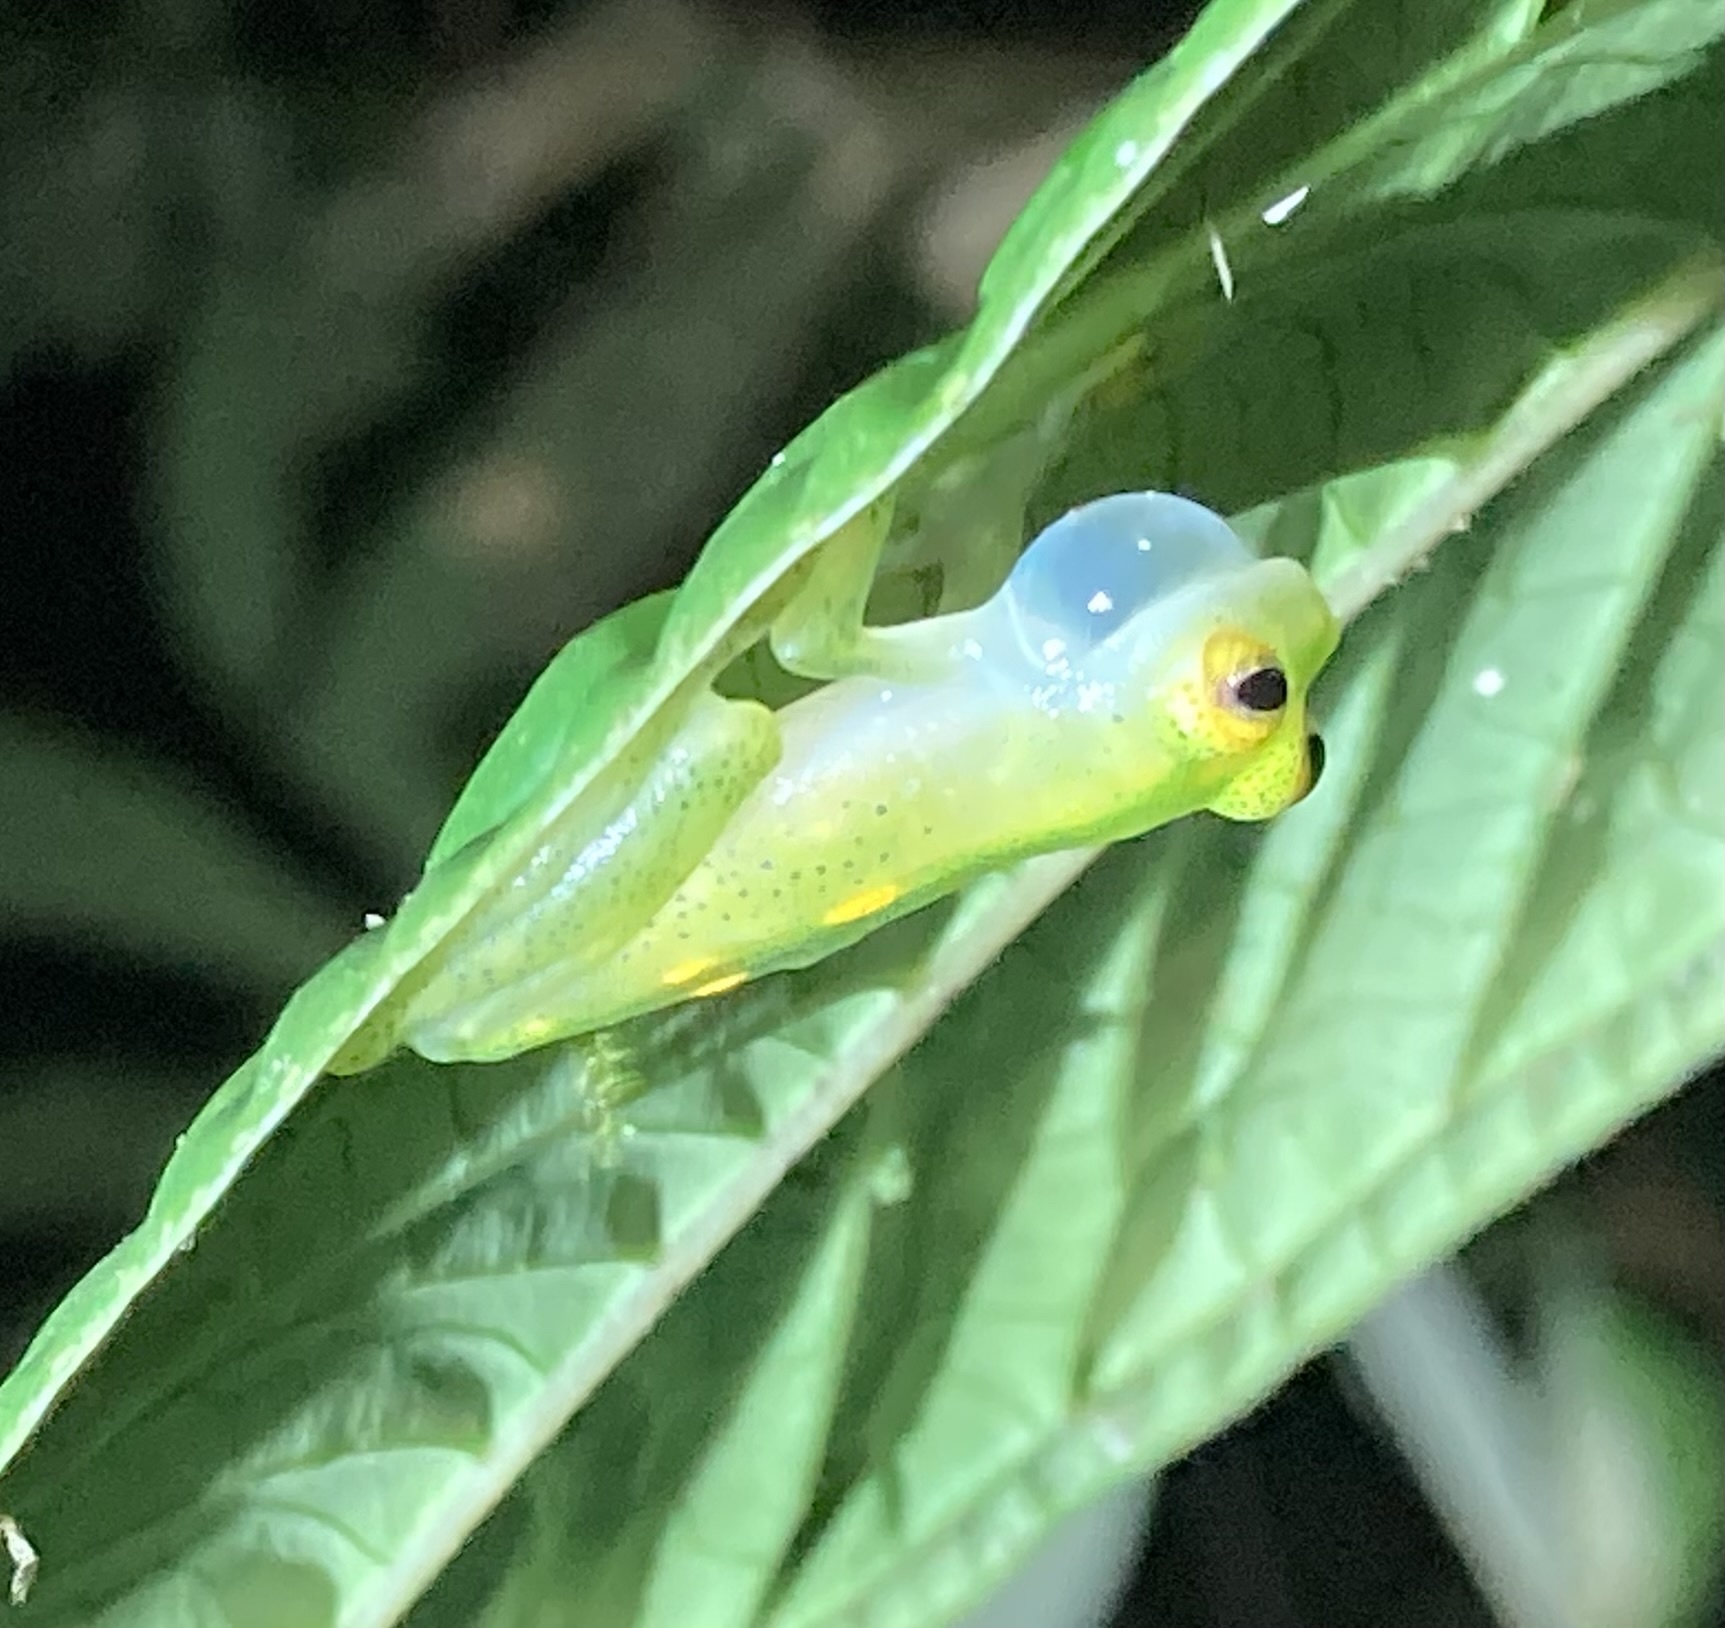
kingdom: Animalia
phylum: Chordata
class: Amphibia
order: Anura
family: Centrolenidae
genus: Hyalinobatrachium
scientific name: Hyalinobatrachium aureoguttatum
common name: Atrato glass frog
